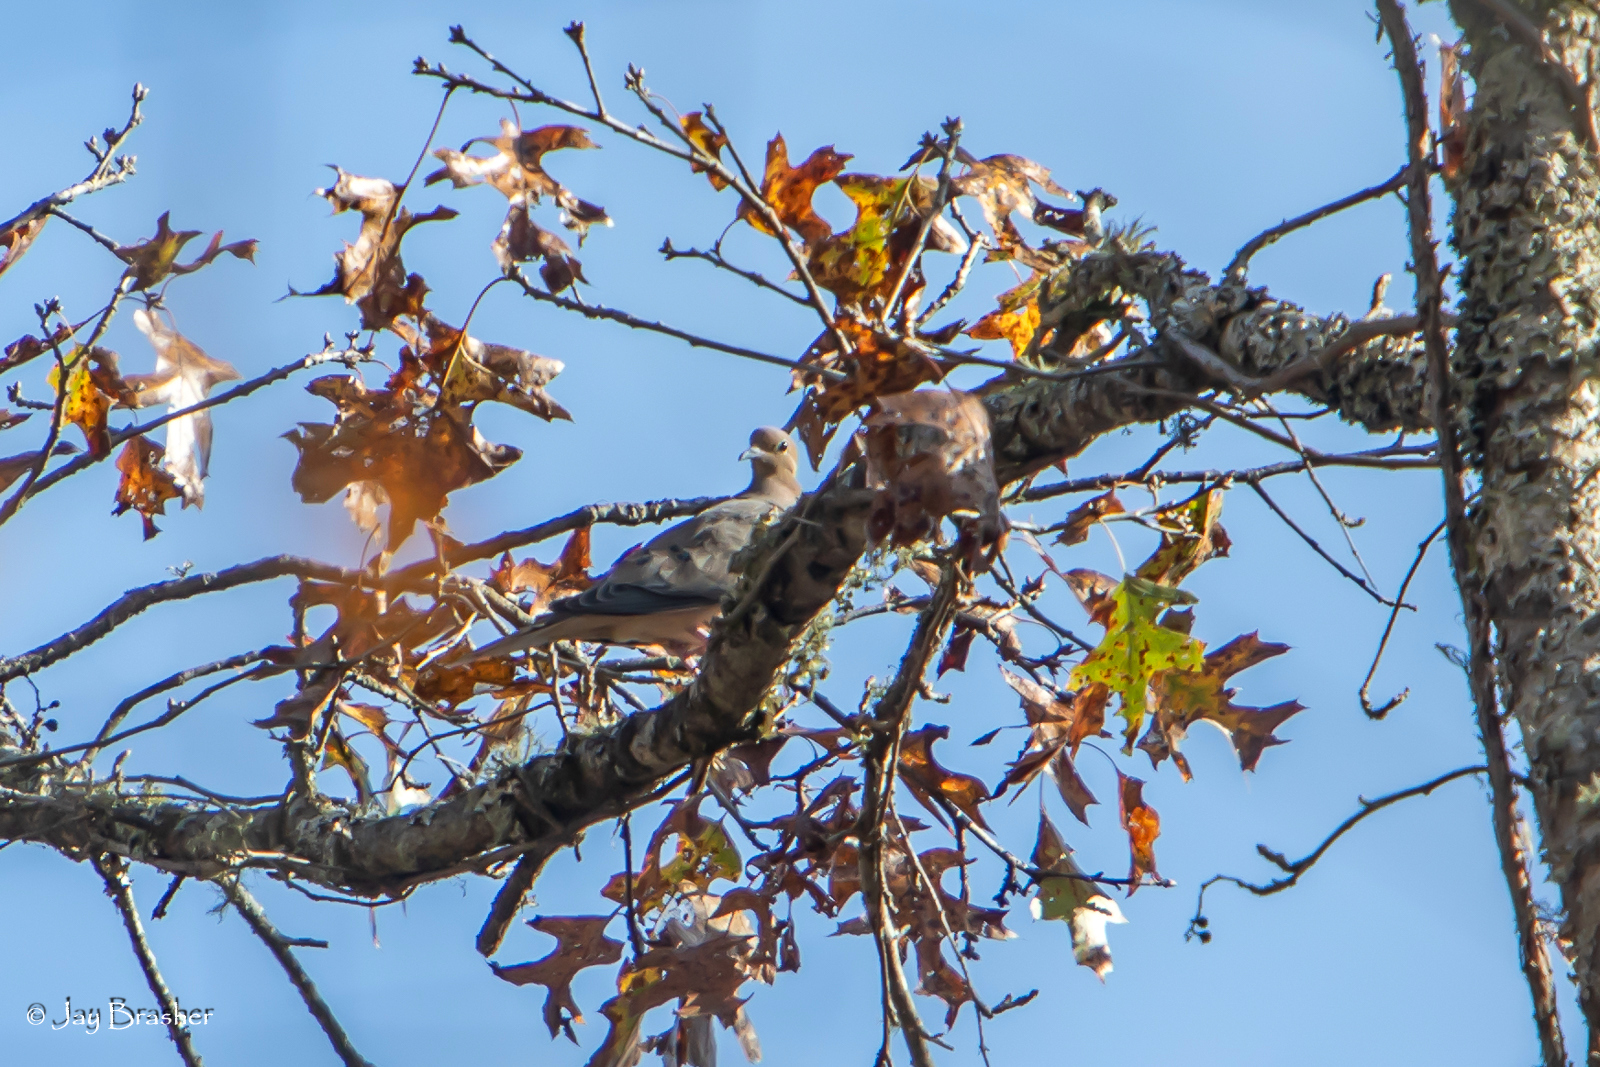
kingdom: Animalia
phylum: Chordata
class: Aves
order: Columbiformes
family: Columbidae
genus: Zenaida
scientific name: Zenaida macroura
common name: Mourning dove
